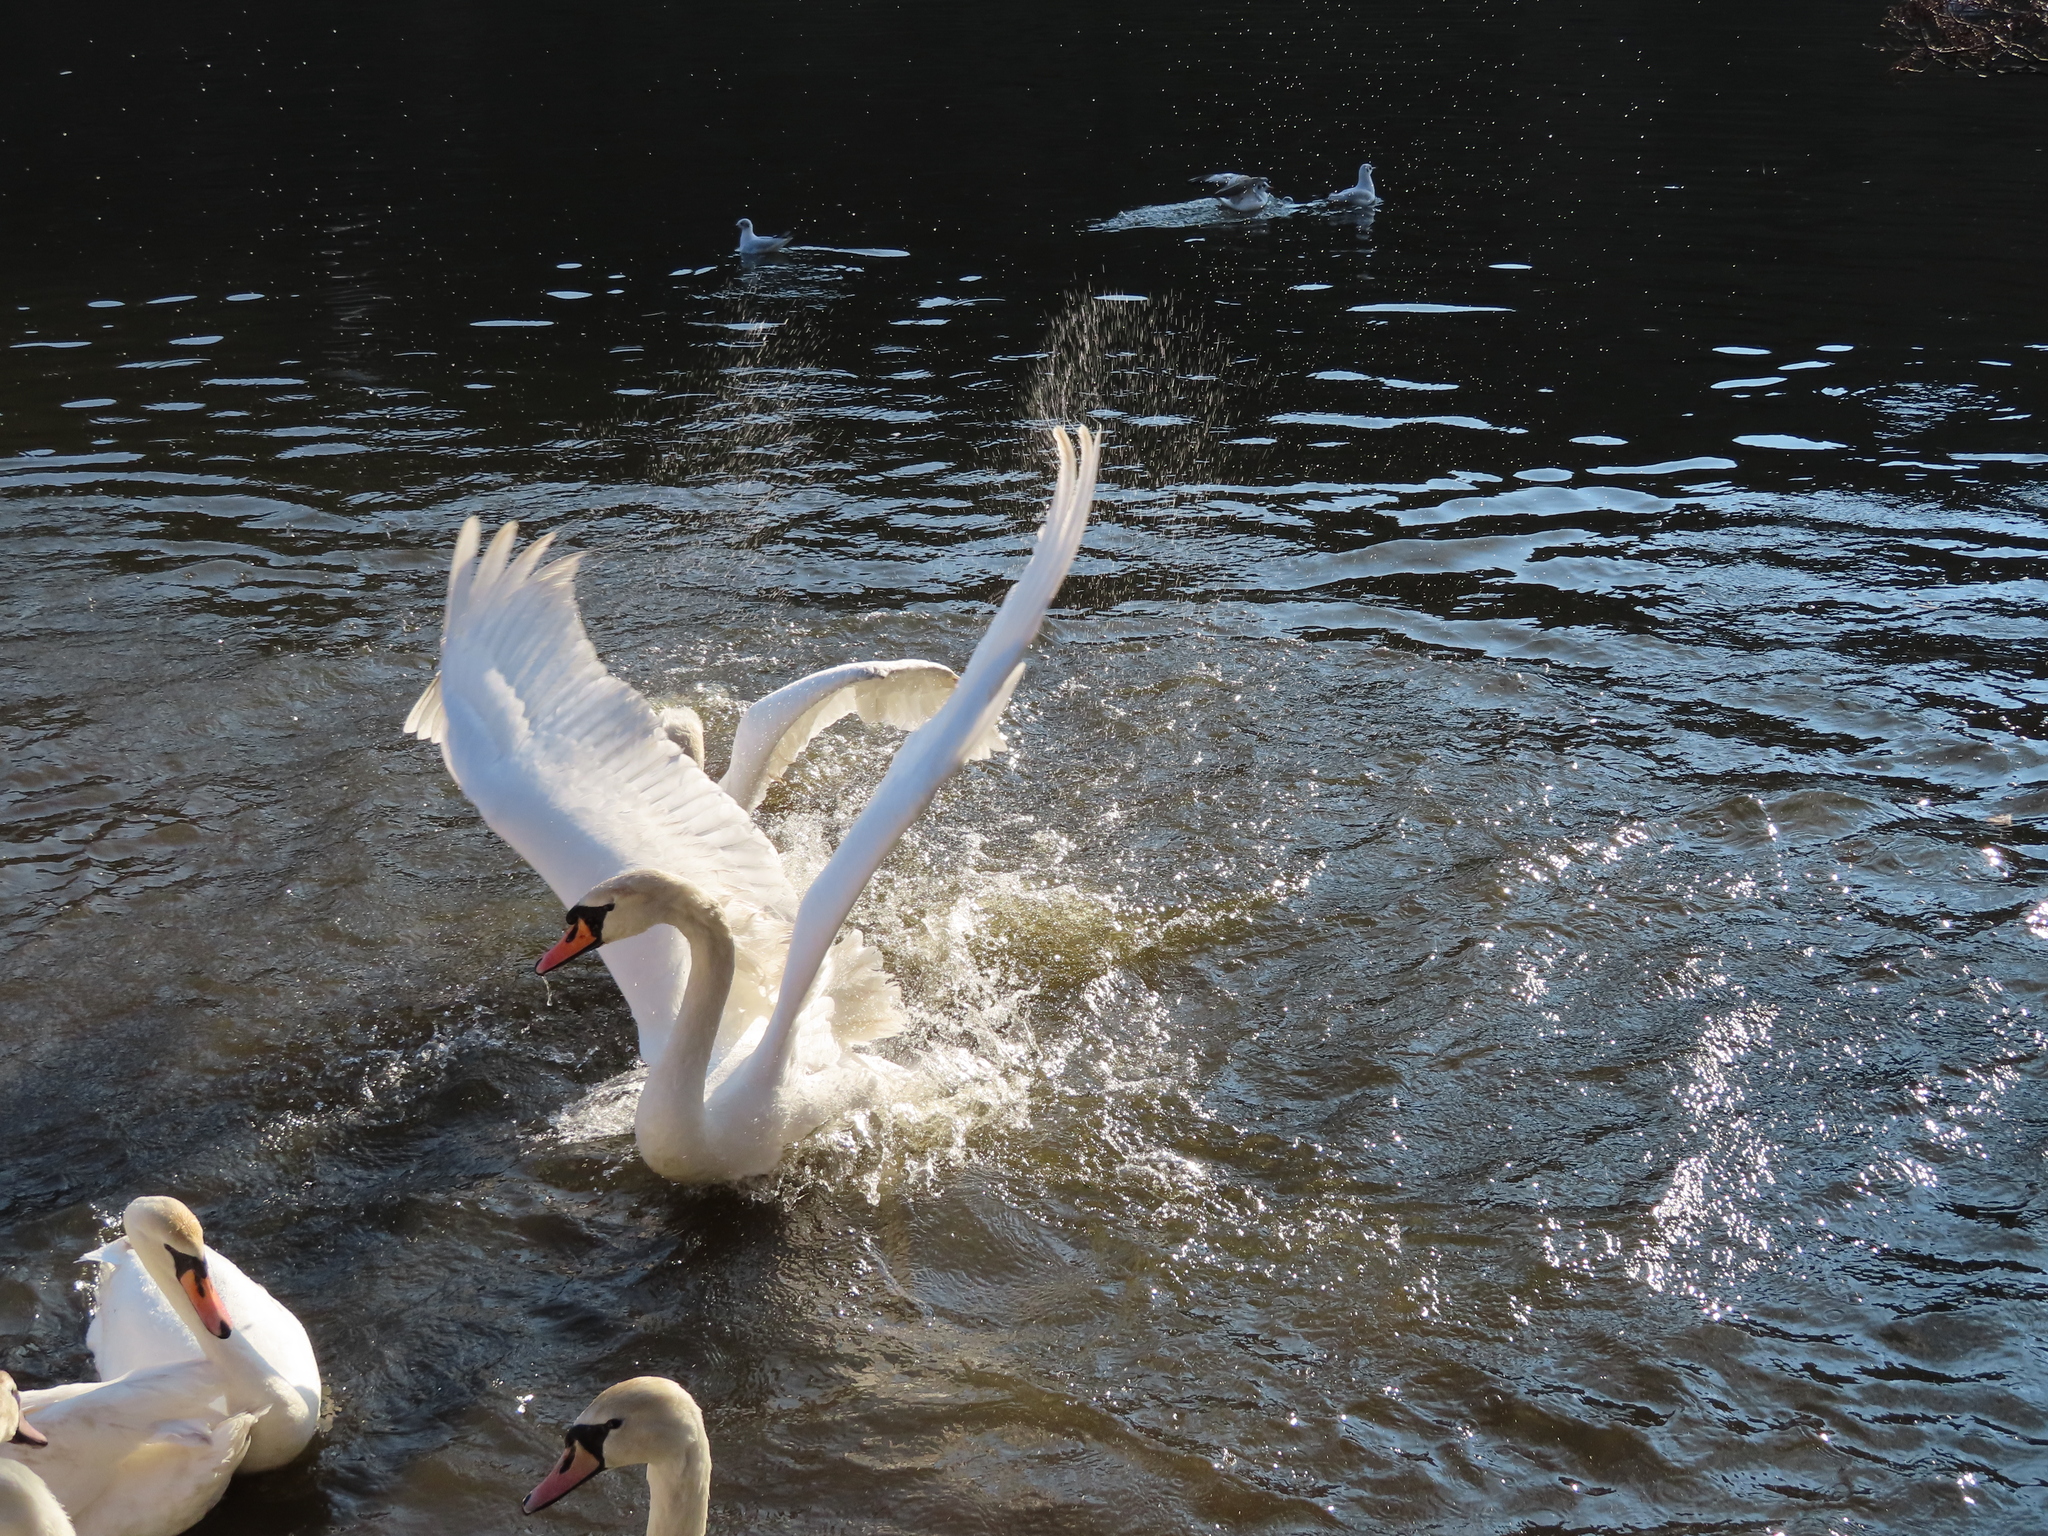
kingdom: Animalia
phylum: Chordata
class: Aves
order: Anseriformes
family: Anatidae
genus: Cygnus
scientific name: Cygnus olor
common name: Mute swan
